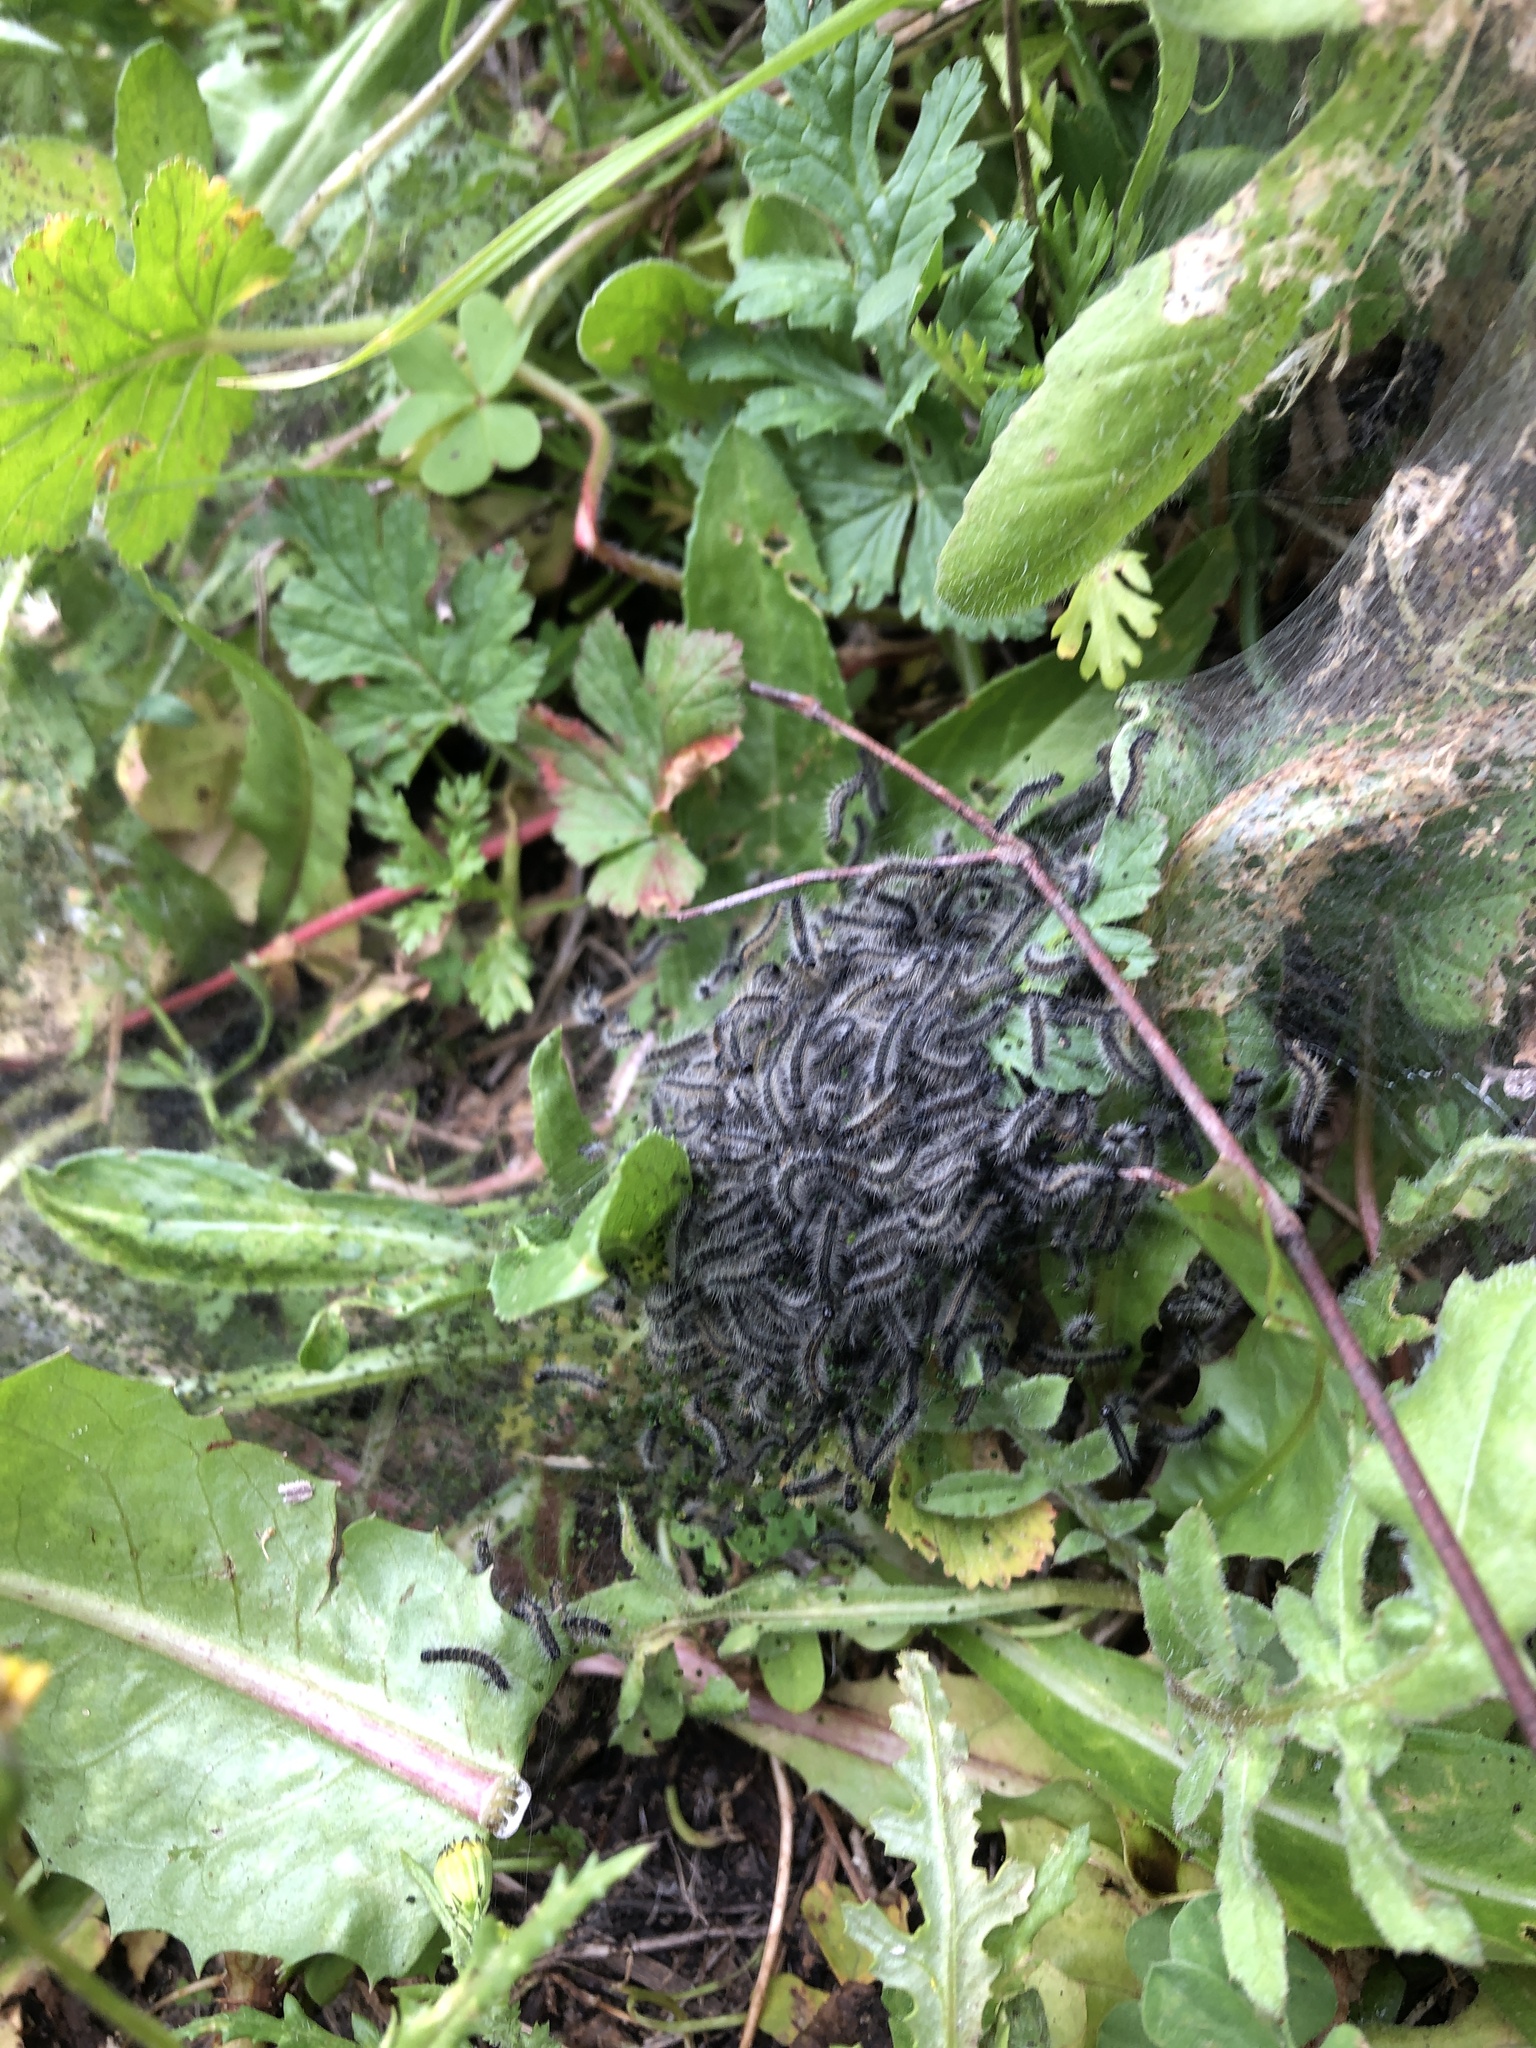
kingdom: Animalia
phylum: Arthropoda
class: Insecta
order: Lepidoptera
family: Erebidae
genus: Ocnogyna
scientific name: Ocnogyna loewii
